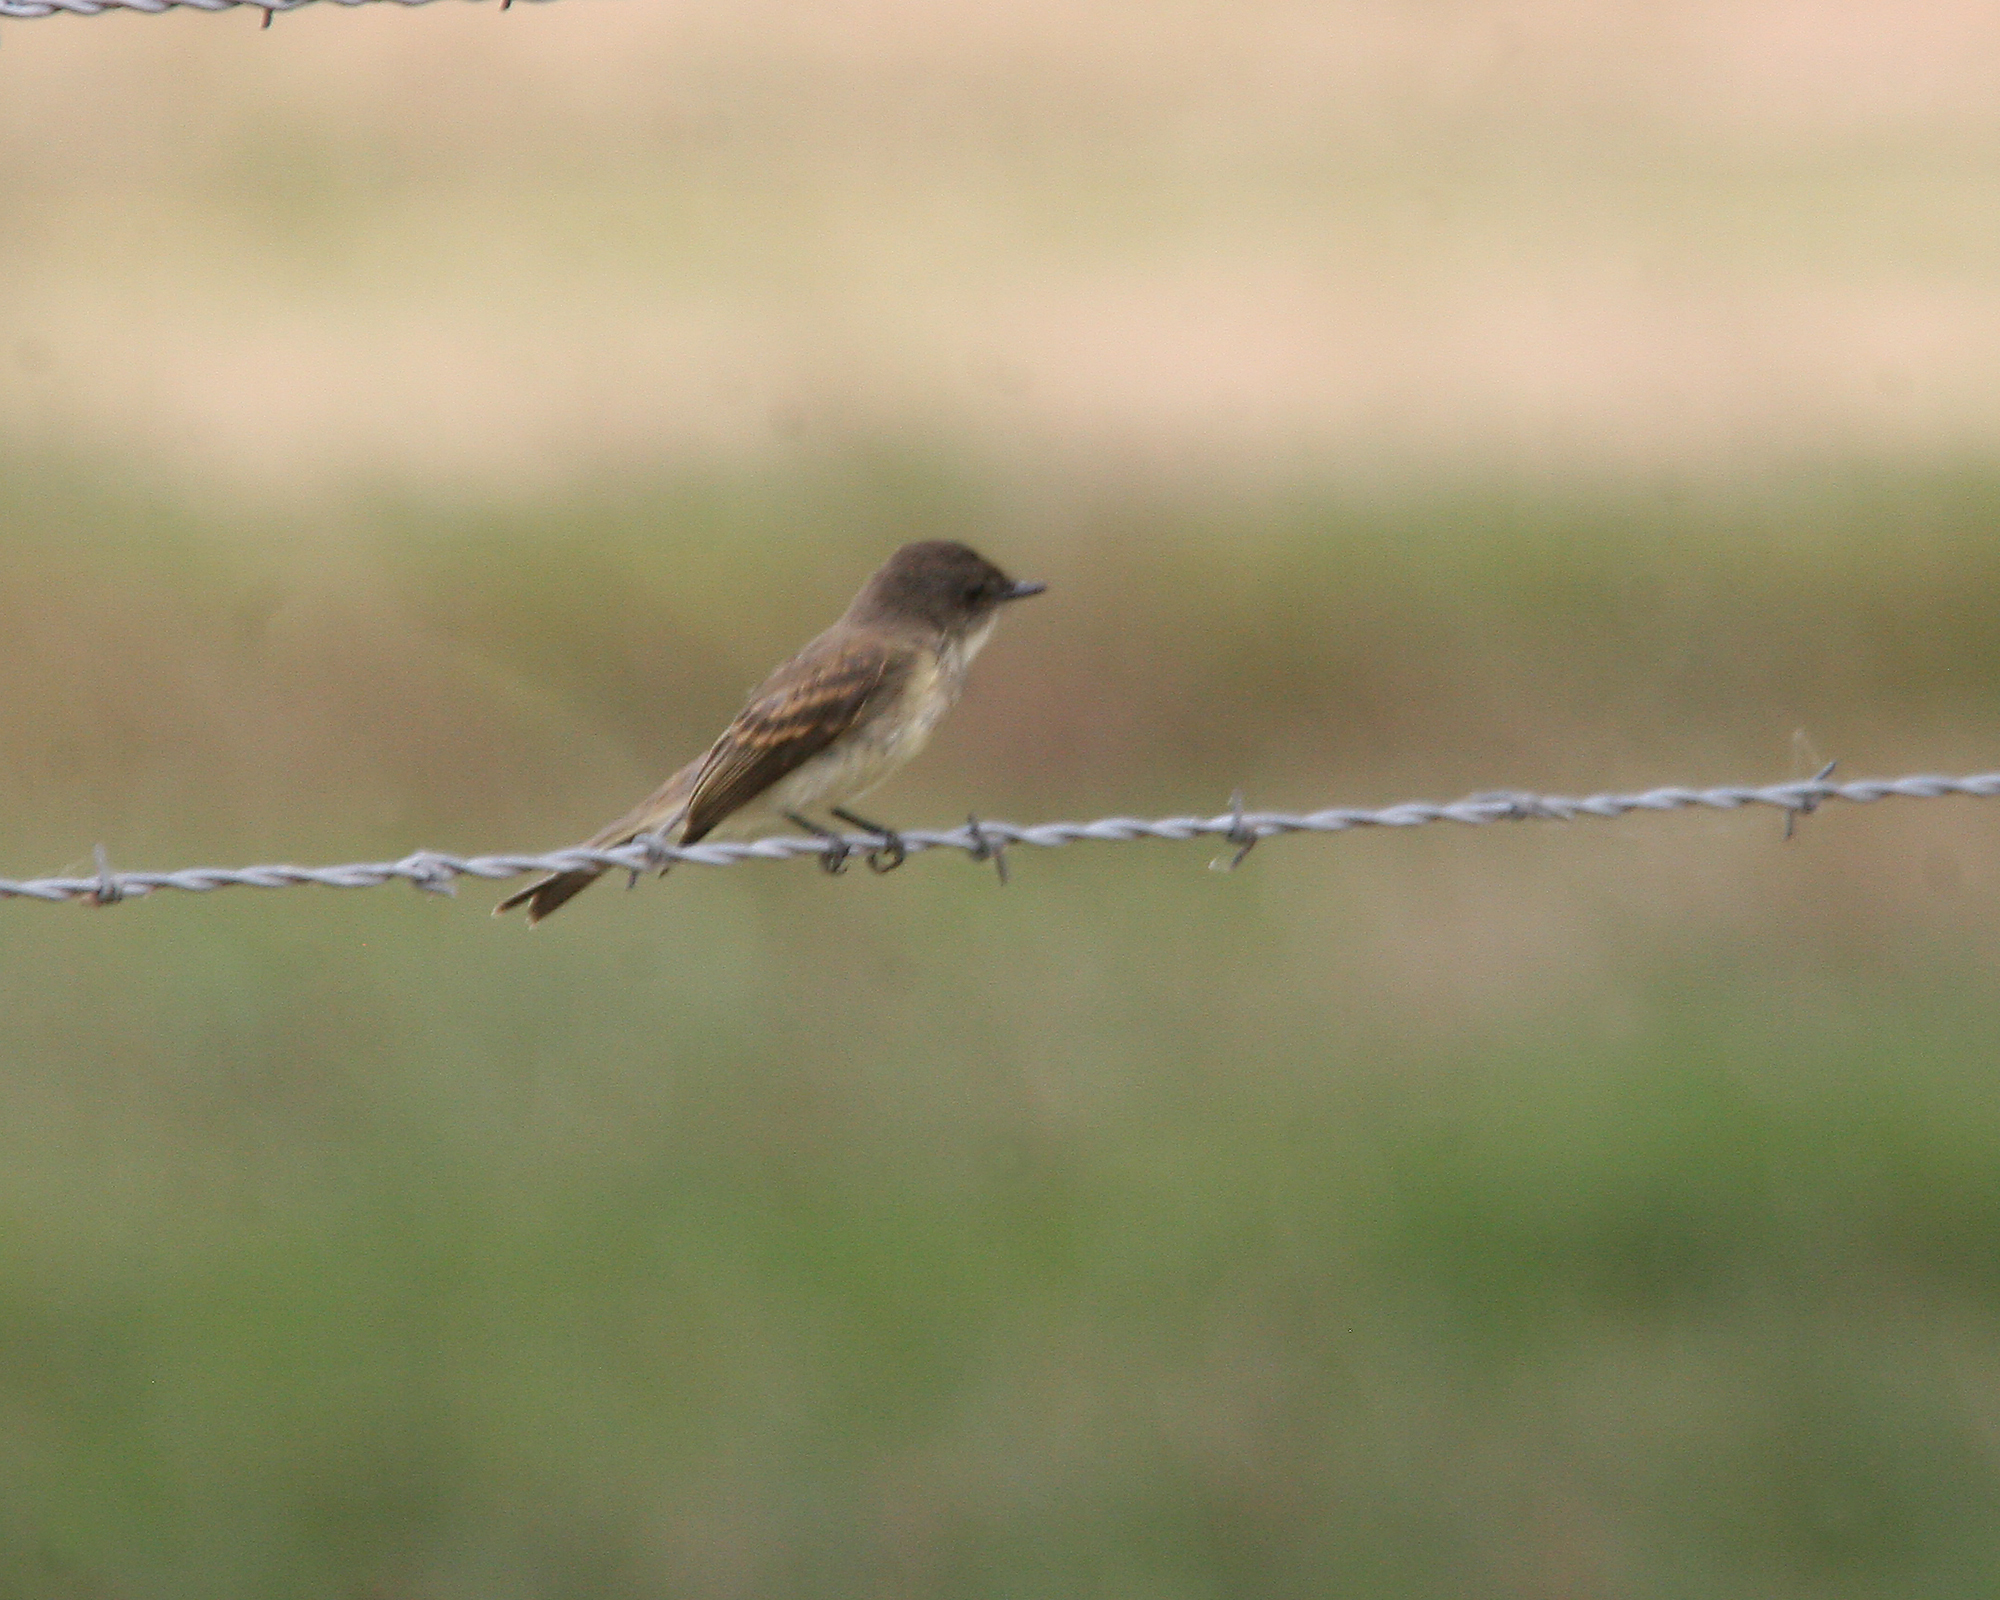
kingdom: Animalia
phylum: Chordata
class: Aves
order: Passeriformes
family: Tyrannidae
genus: Sayornis
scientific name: Sayornis phoebe
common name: Eastern phoebe
